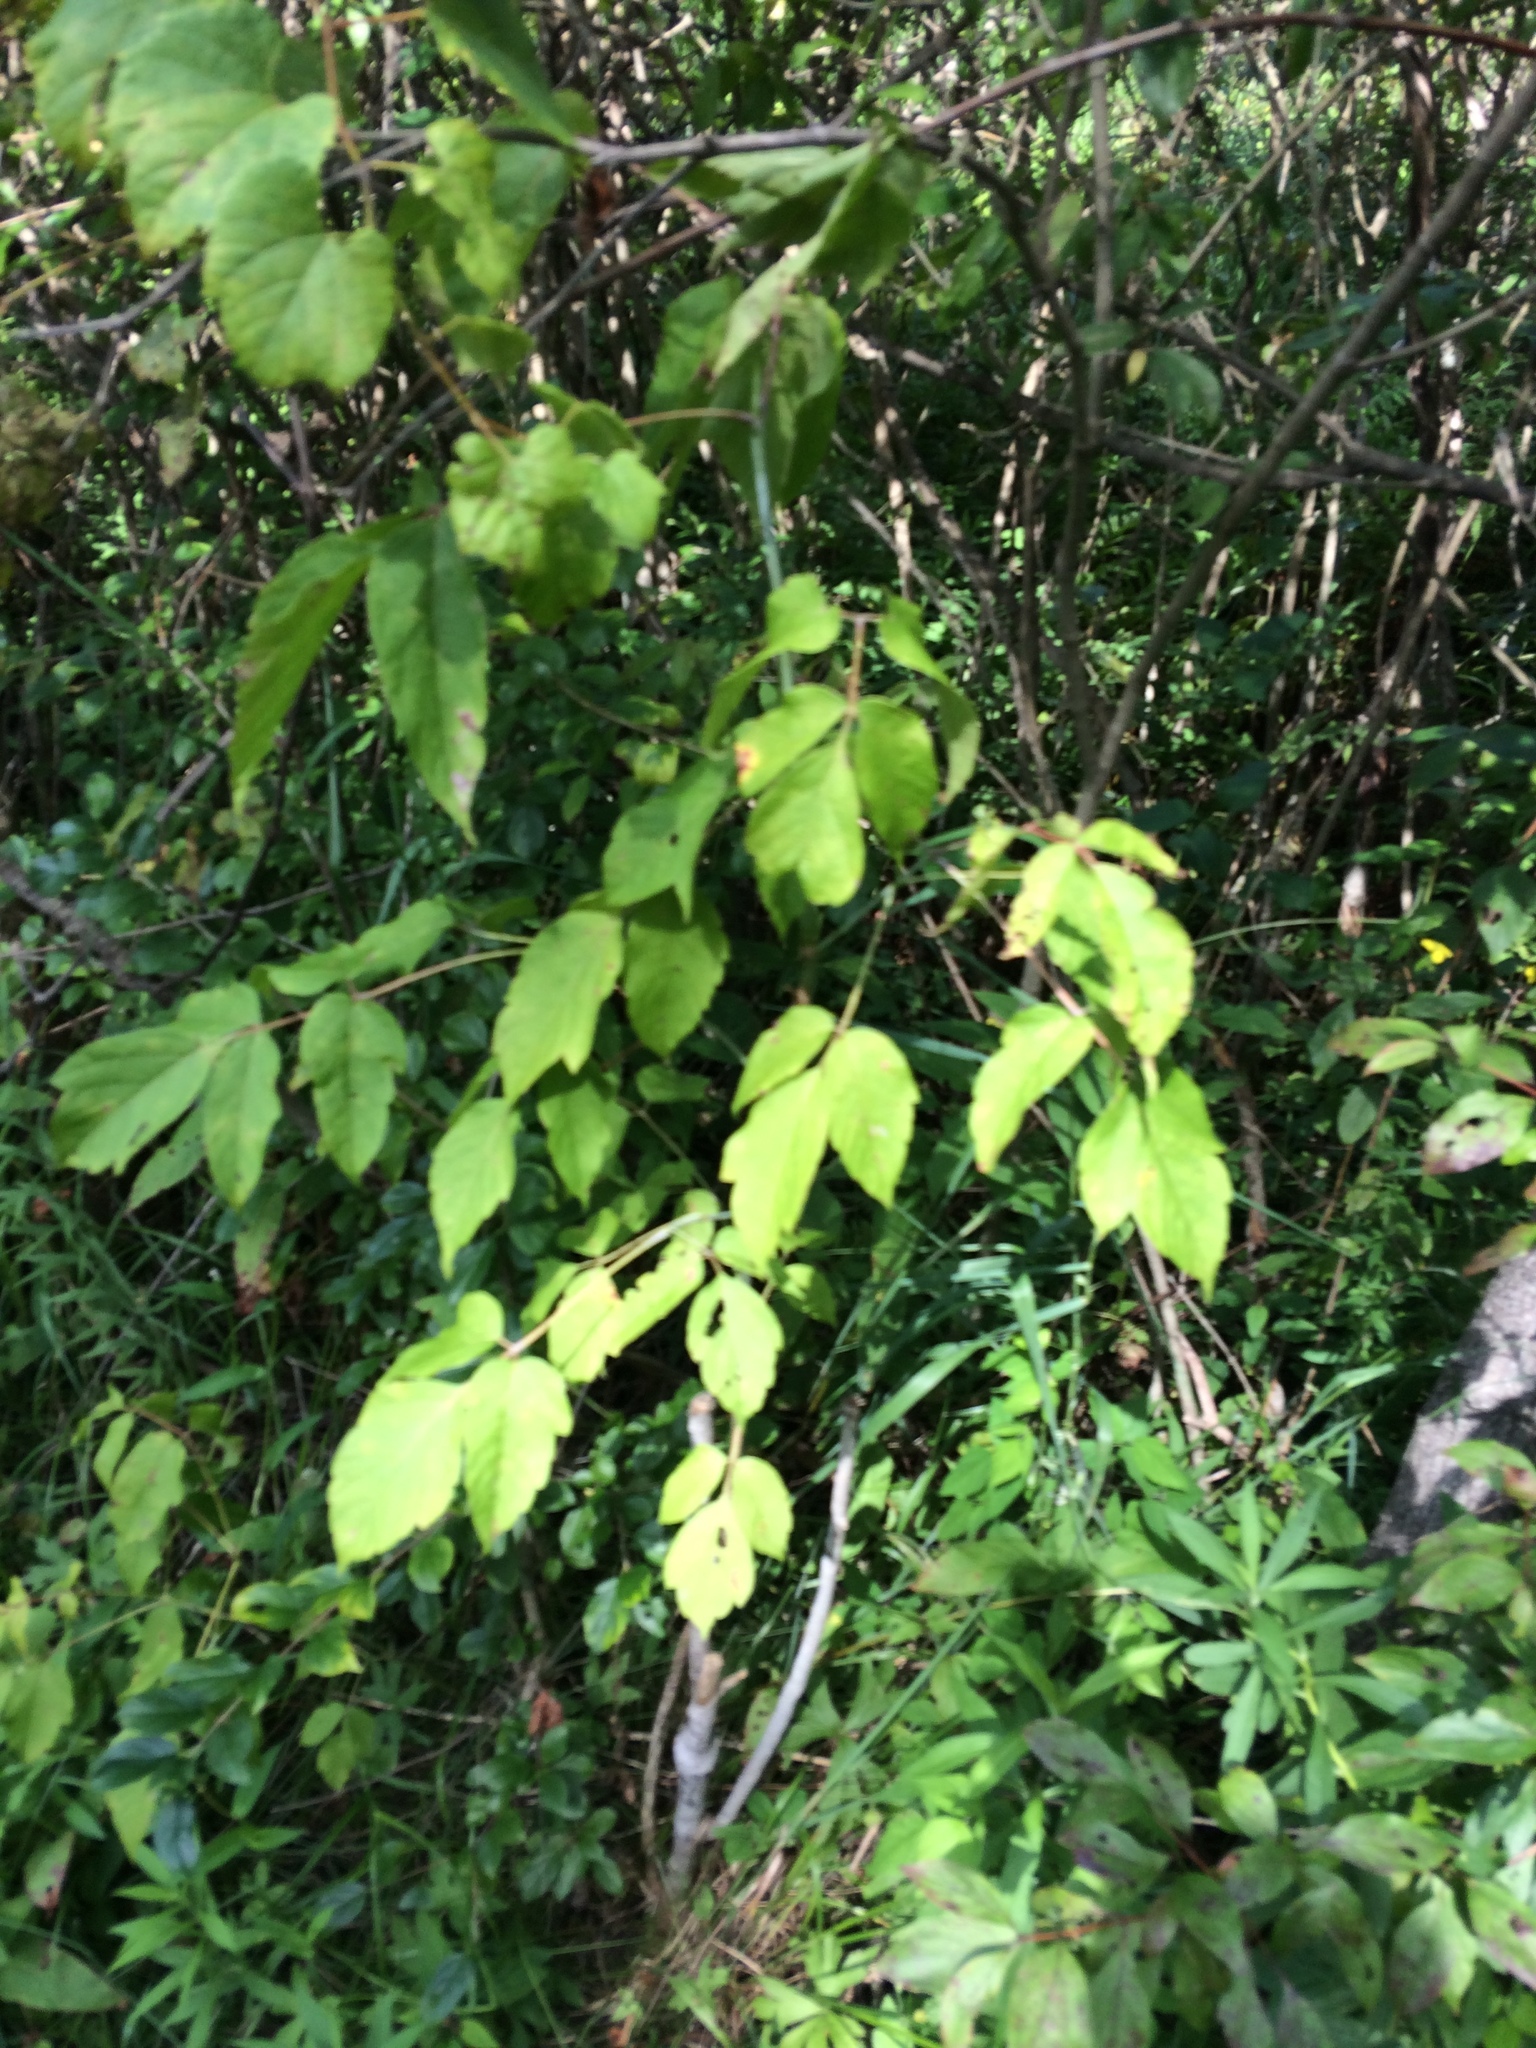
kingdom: Plantae
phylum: Tracheophyta
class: Magnoliopsida
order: Sapindales
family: Sapindaceae
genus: Acer
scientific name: Acer negundo
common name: Ashleaf maple
